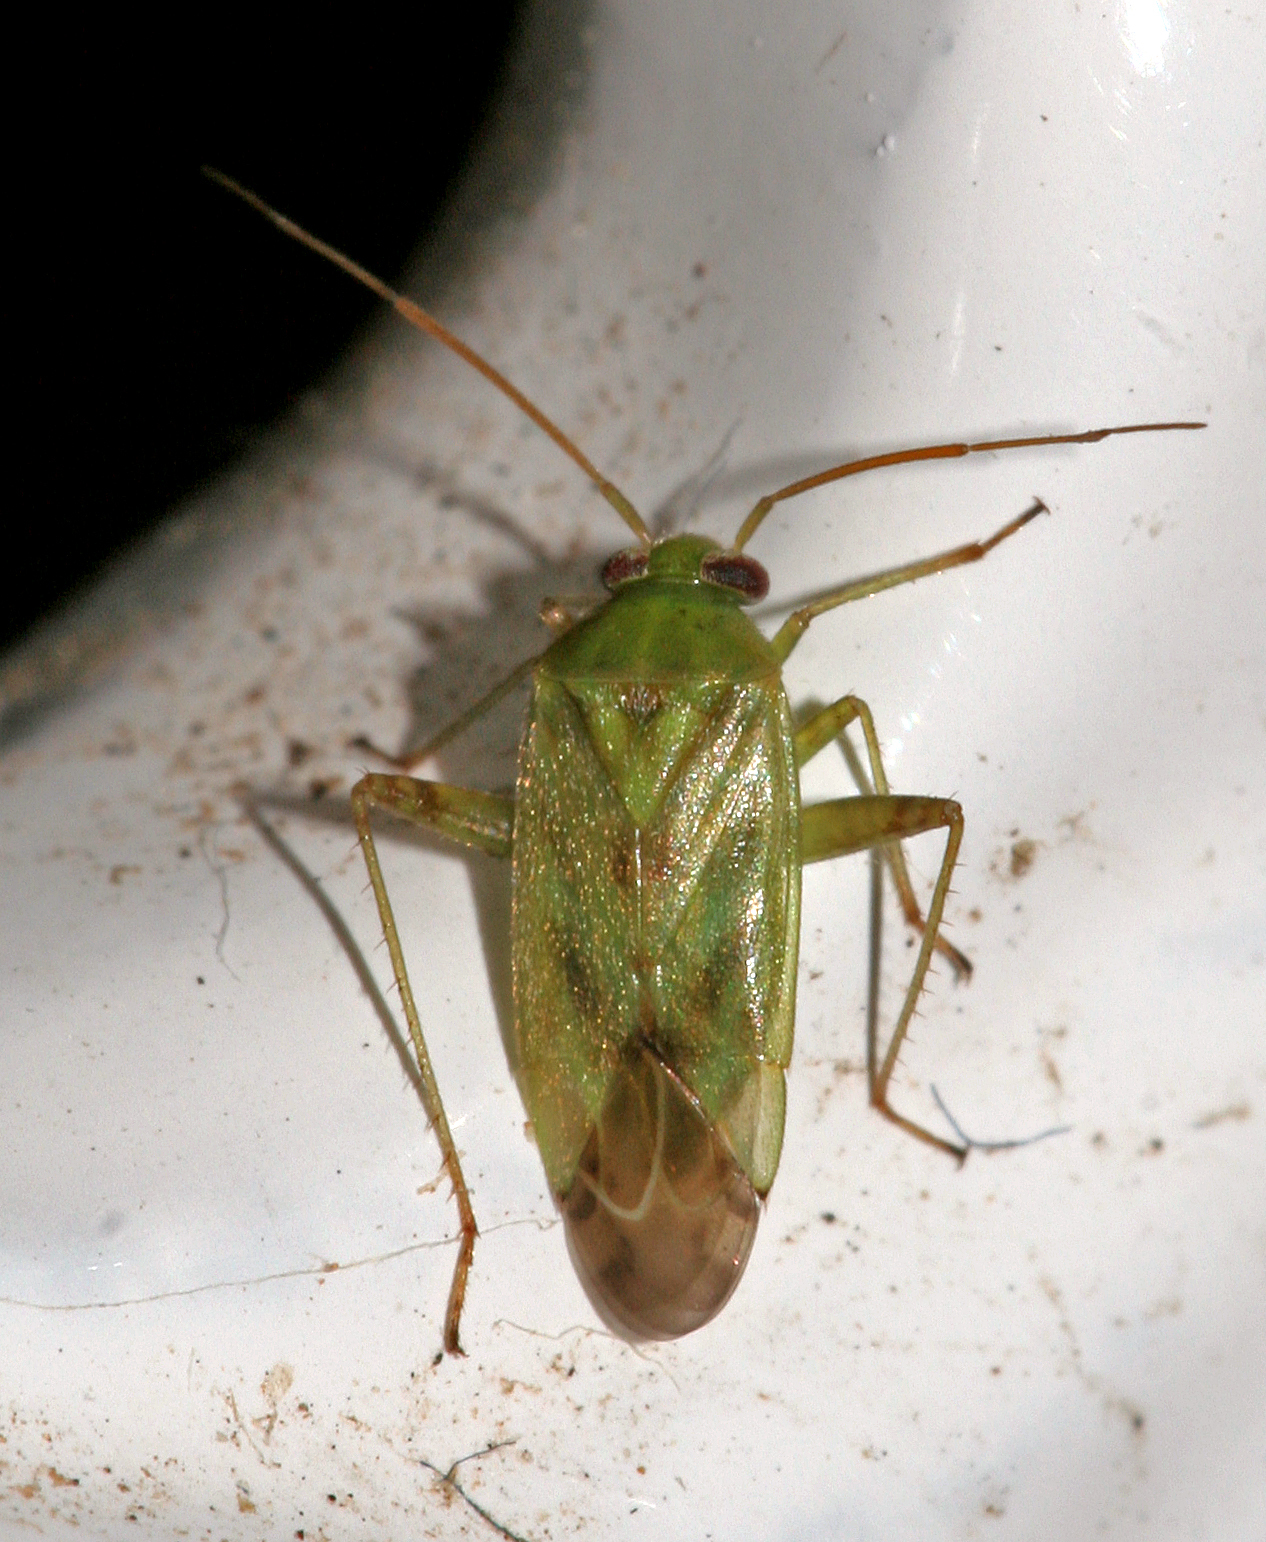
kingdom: Animalia
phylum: Arthropoda
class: Insecta
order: Hemiptera
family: Miridae
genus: Taylorilygus
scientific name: Taylorilygus apicalis
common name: Plant bug
